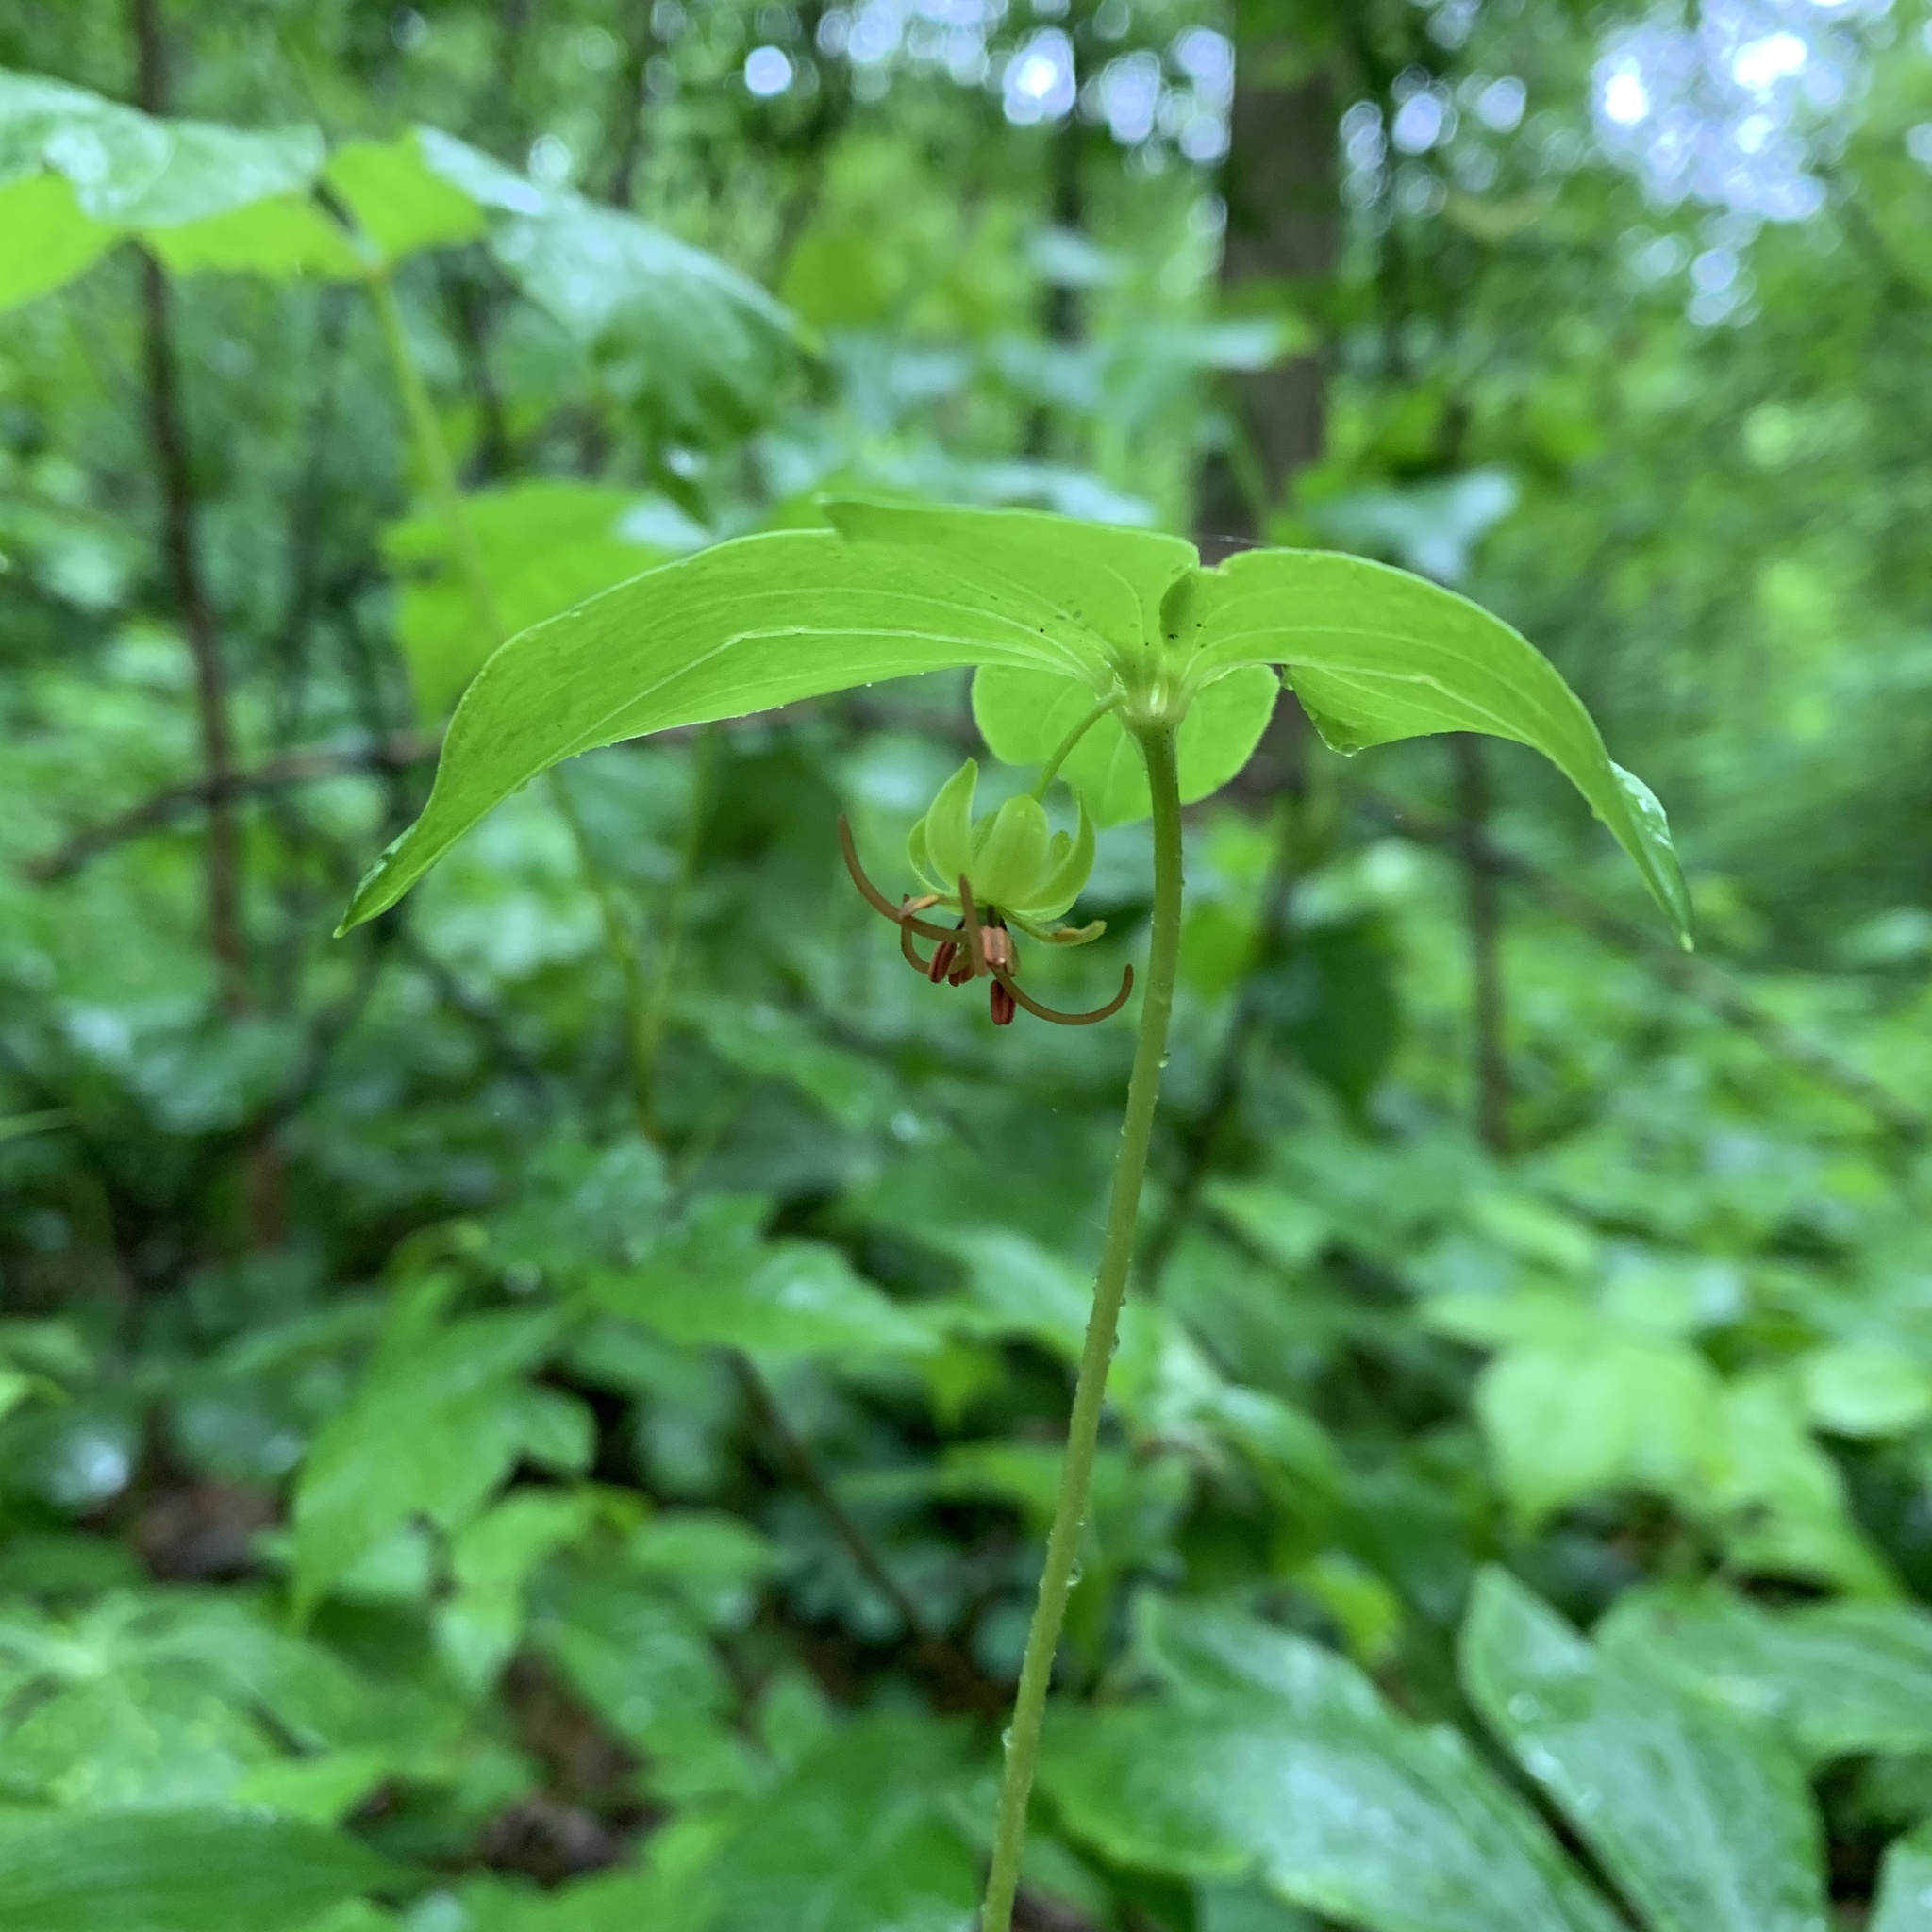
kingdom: Plantae
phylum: Tracheophyta
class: Liliopsida
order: Liliales
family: Liliaceae
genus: Medeola
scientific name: Medeola virginiana
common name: Indian cucumber-root
